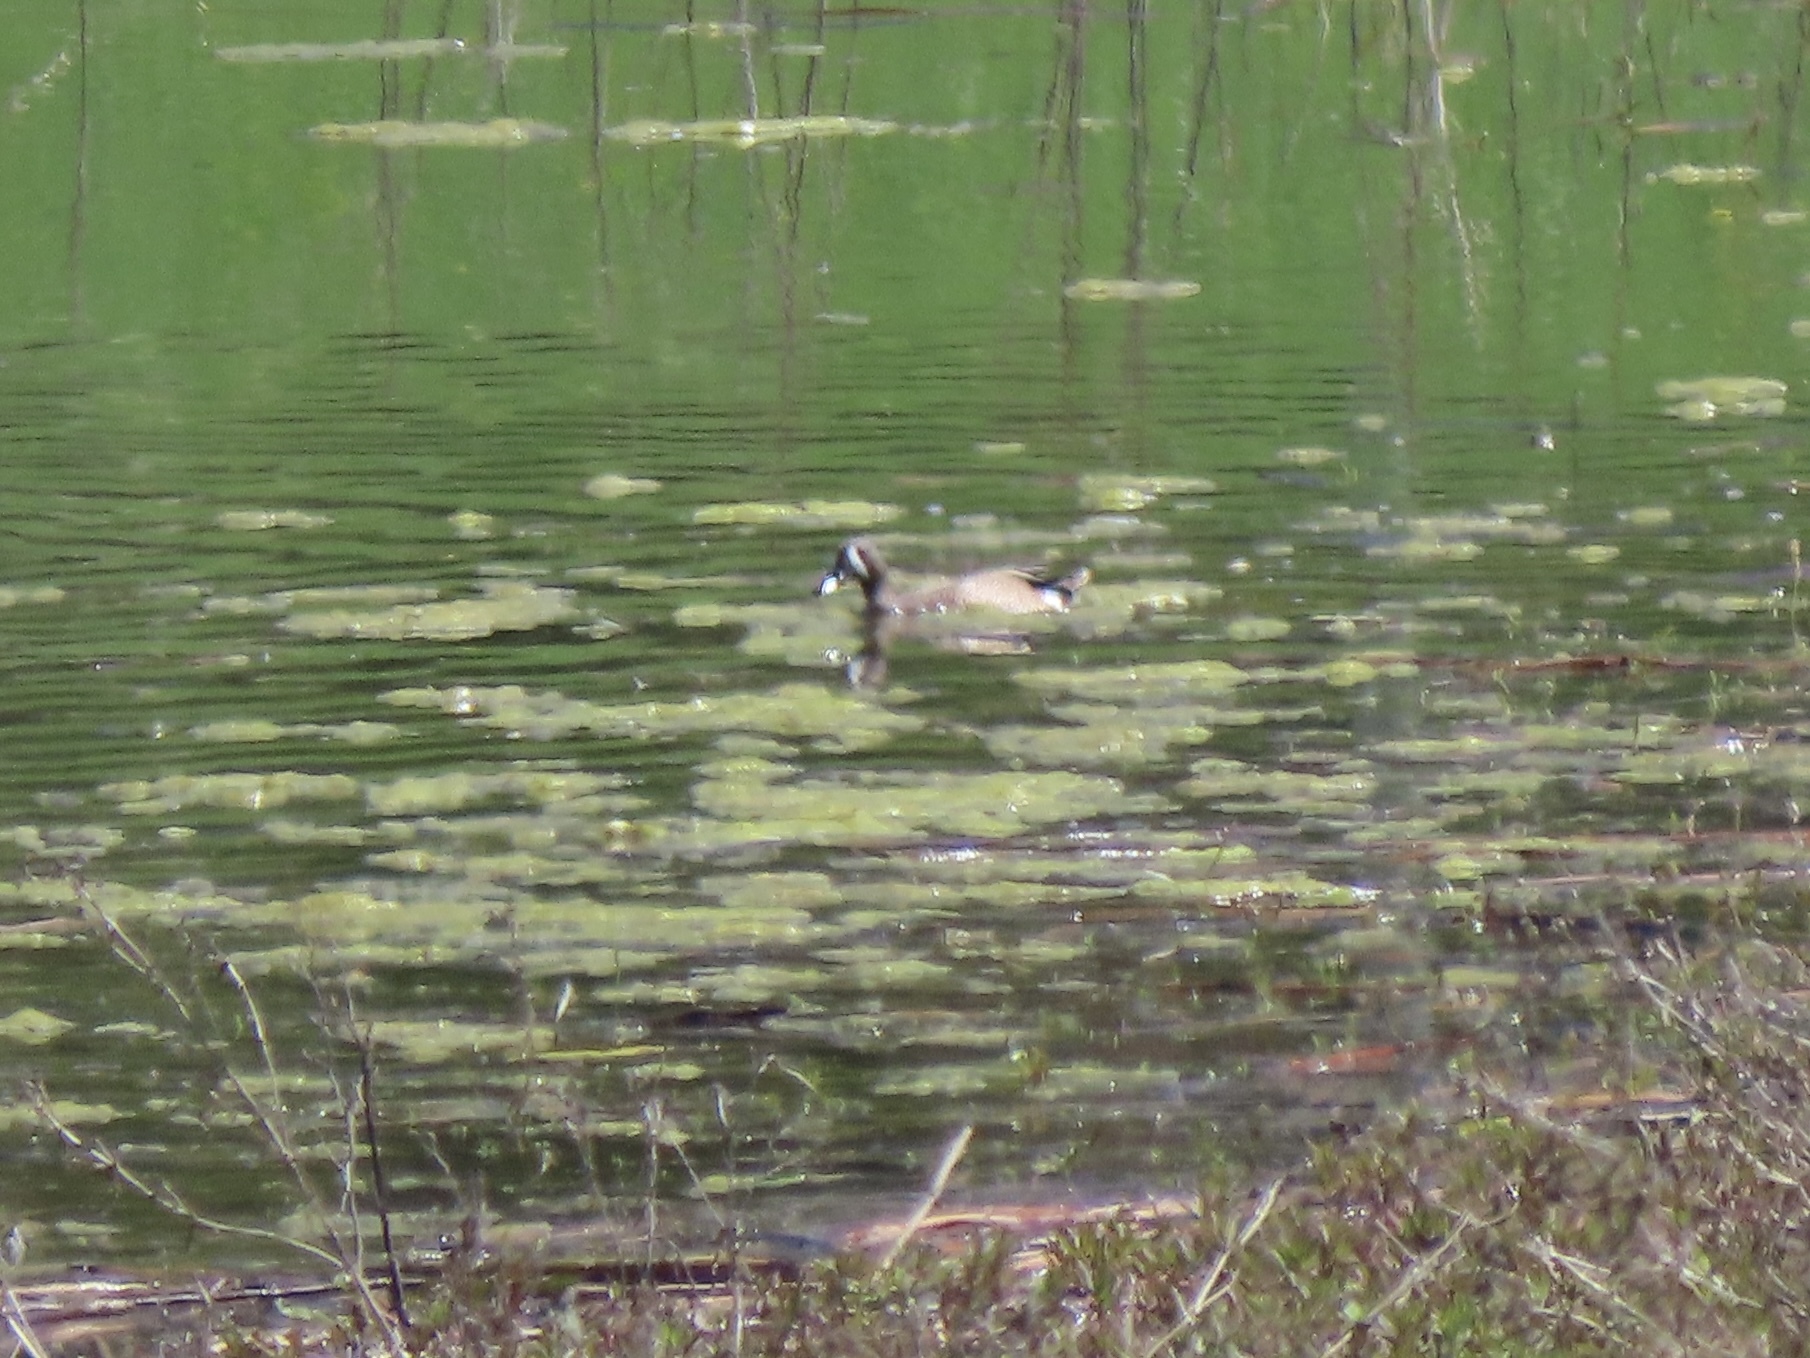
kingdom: Animalia
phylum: Chordata
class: Aves
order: Anseriformes
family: Anatidae
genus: Spatula
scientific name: Spatula discors
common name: Blue-winged teal
